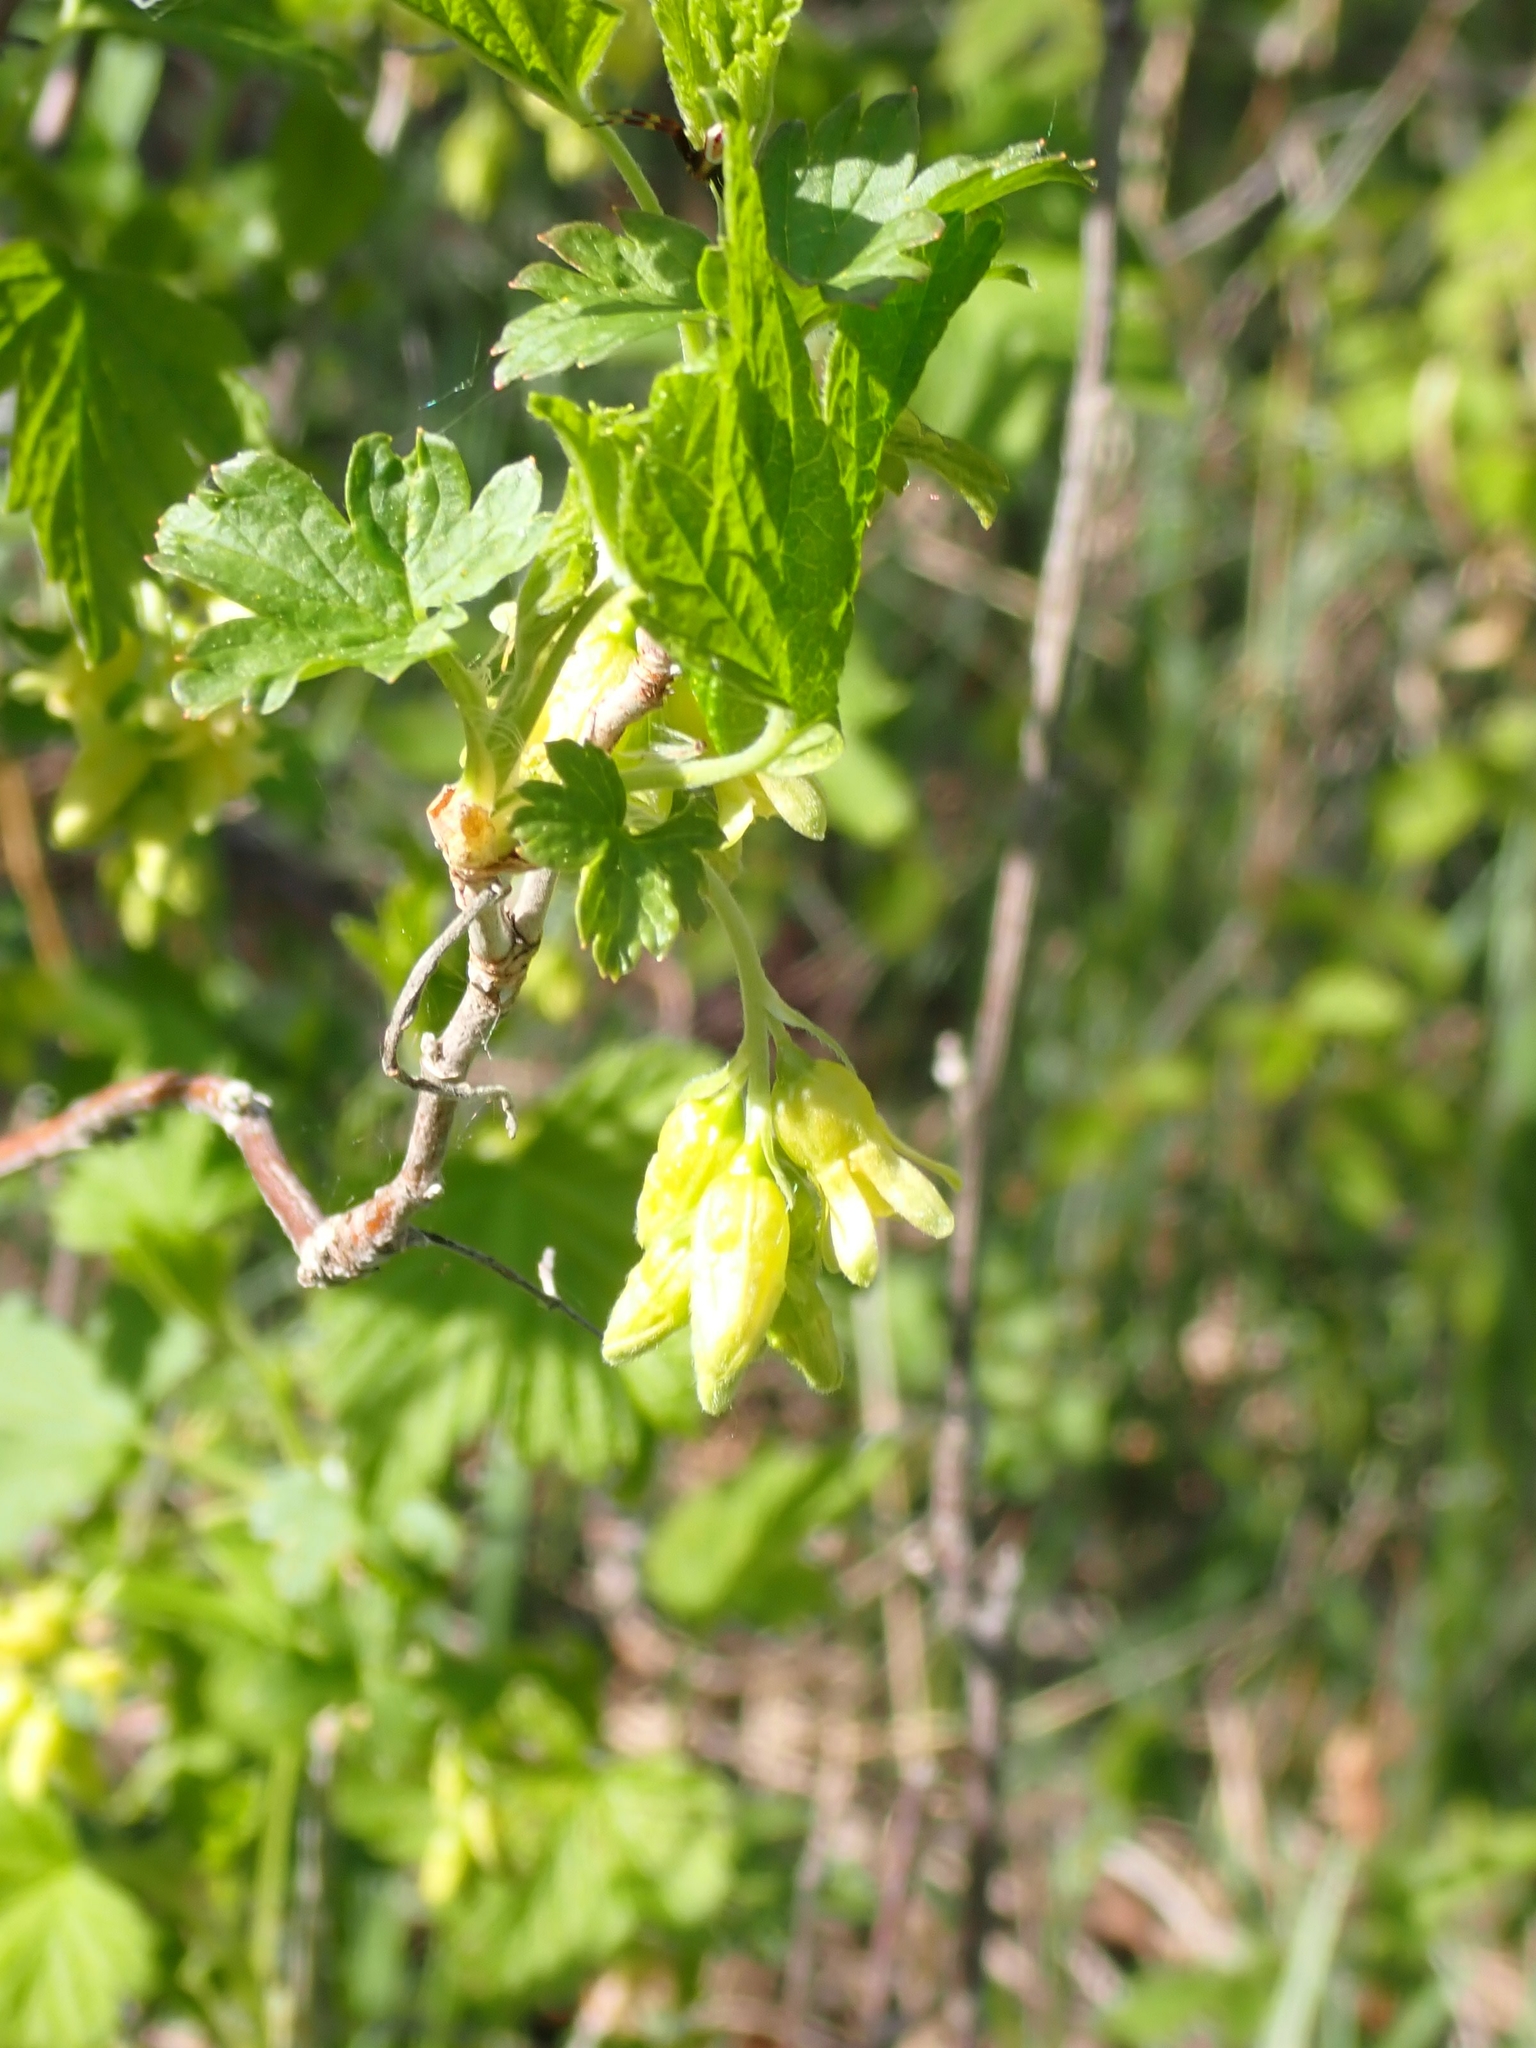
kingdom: Plantae
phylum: Tracheophyta
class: Magnoliopsida
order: Saxifragales
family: Grossulariaceae
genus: Ribes
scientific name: Ribes americanum
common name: American black currant
